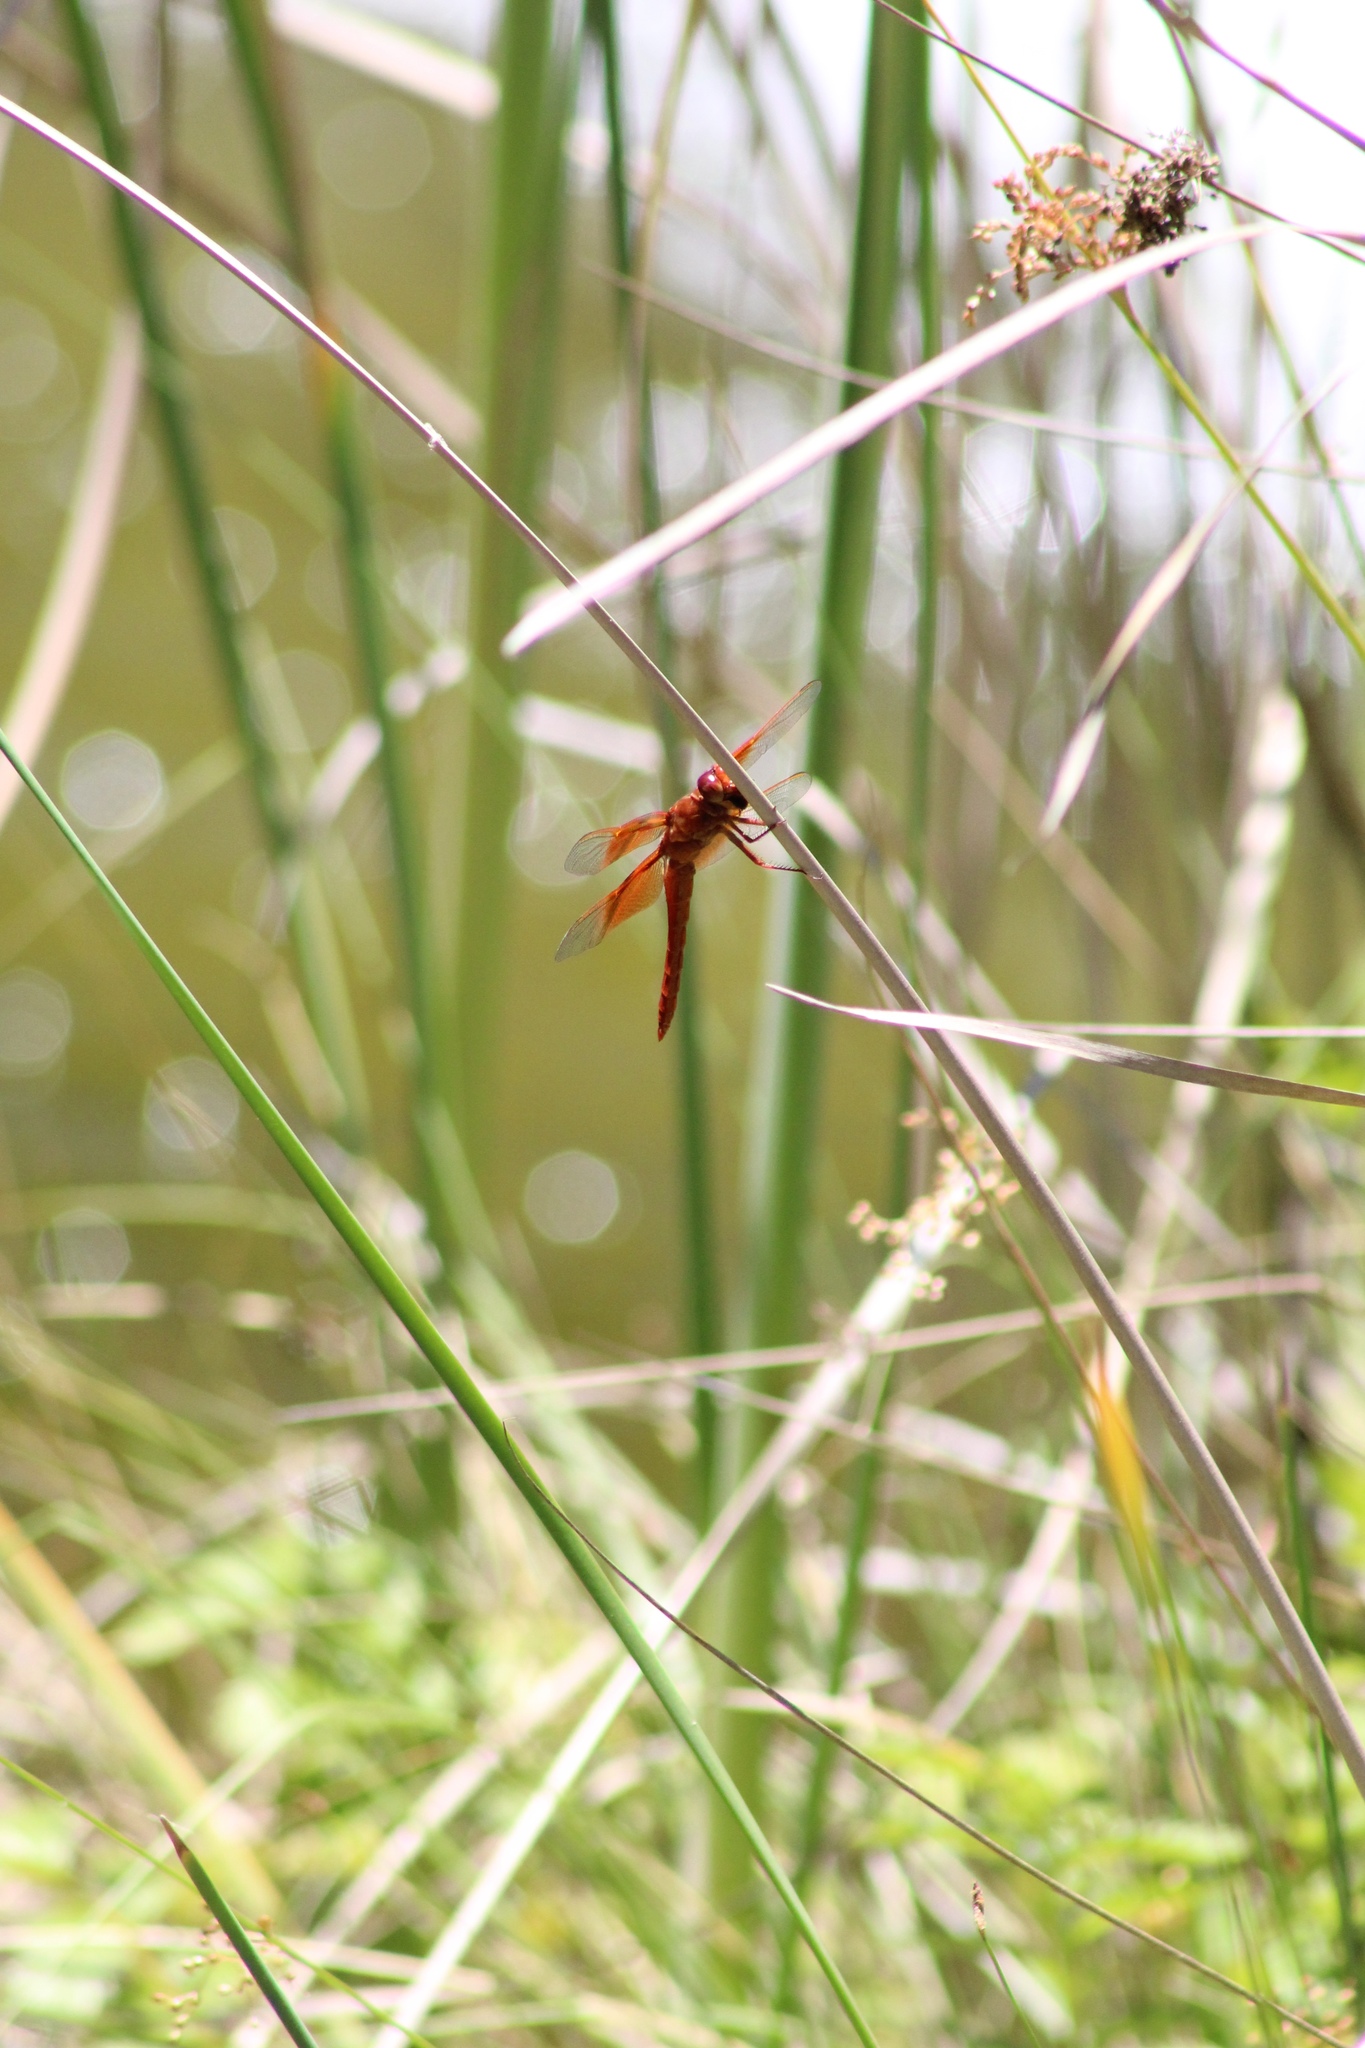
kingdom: Animalia
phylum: Arthropoda
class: Insecta
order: Odonata
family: Libellulidae
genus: Libellula
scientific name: Libellula saturata
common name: Flame skimmer
